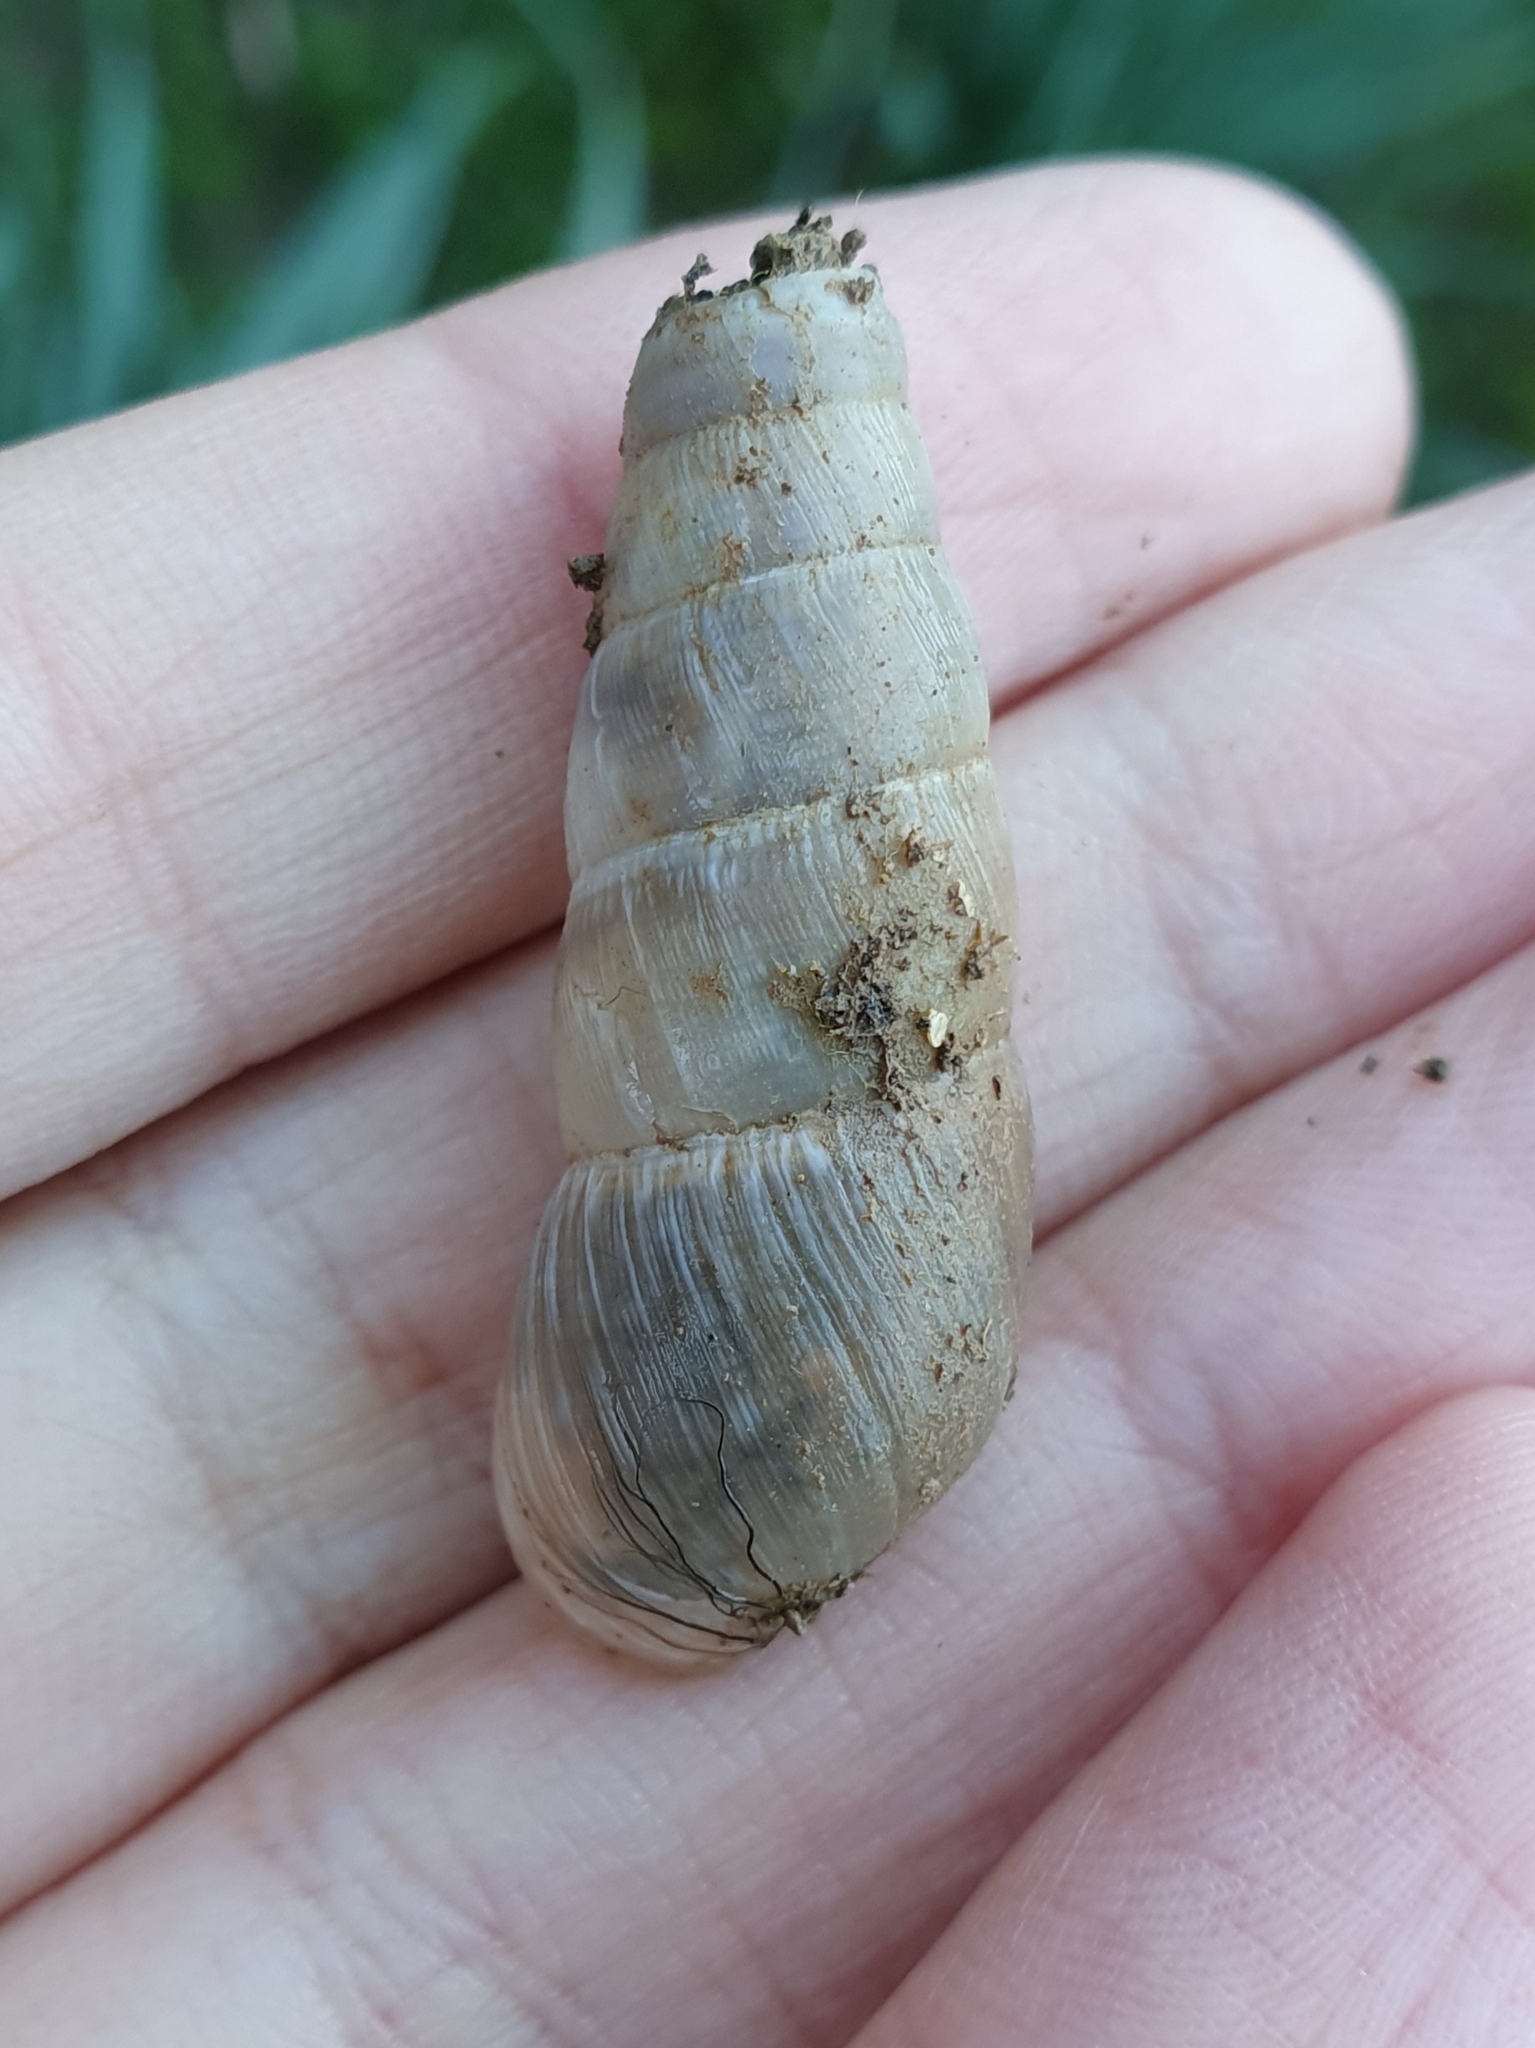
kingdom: Animalia
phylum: Mollusca
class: Gastropoda
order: Stylommatophora
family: Achatinidae
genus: Rumina
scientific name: Rumina decollata
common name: Decollate snail
